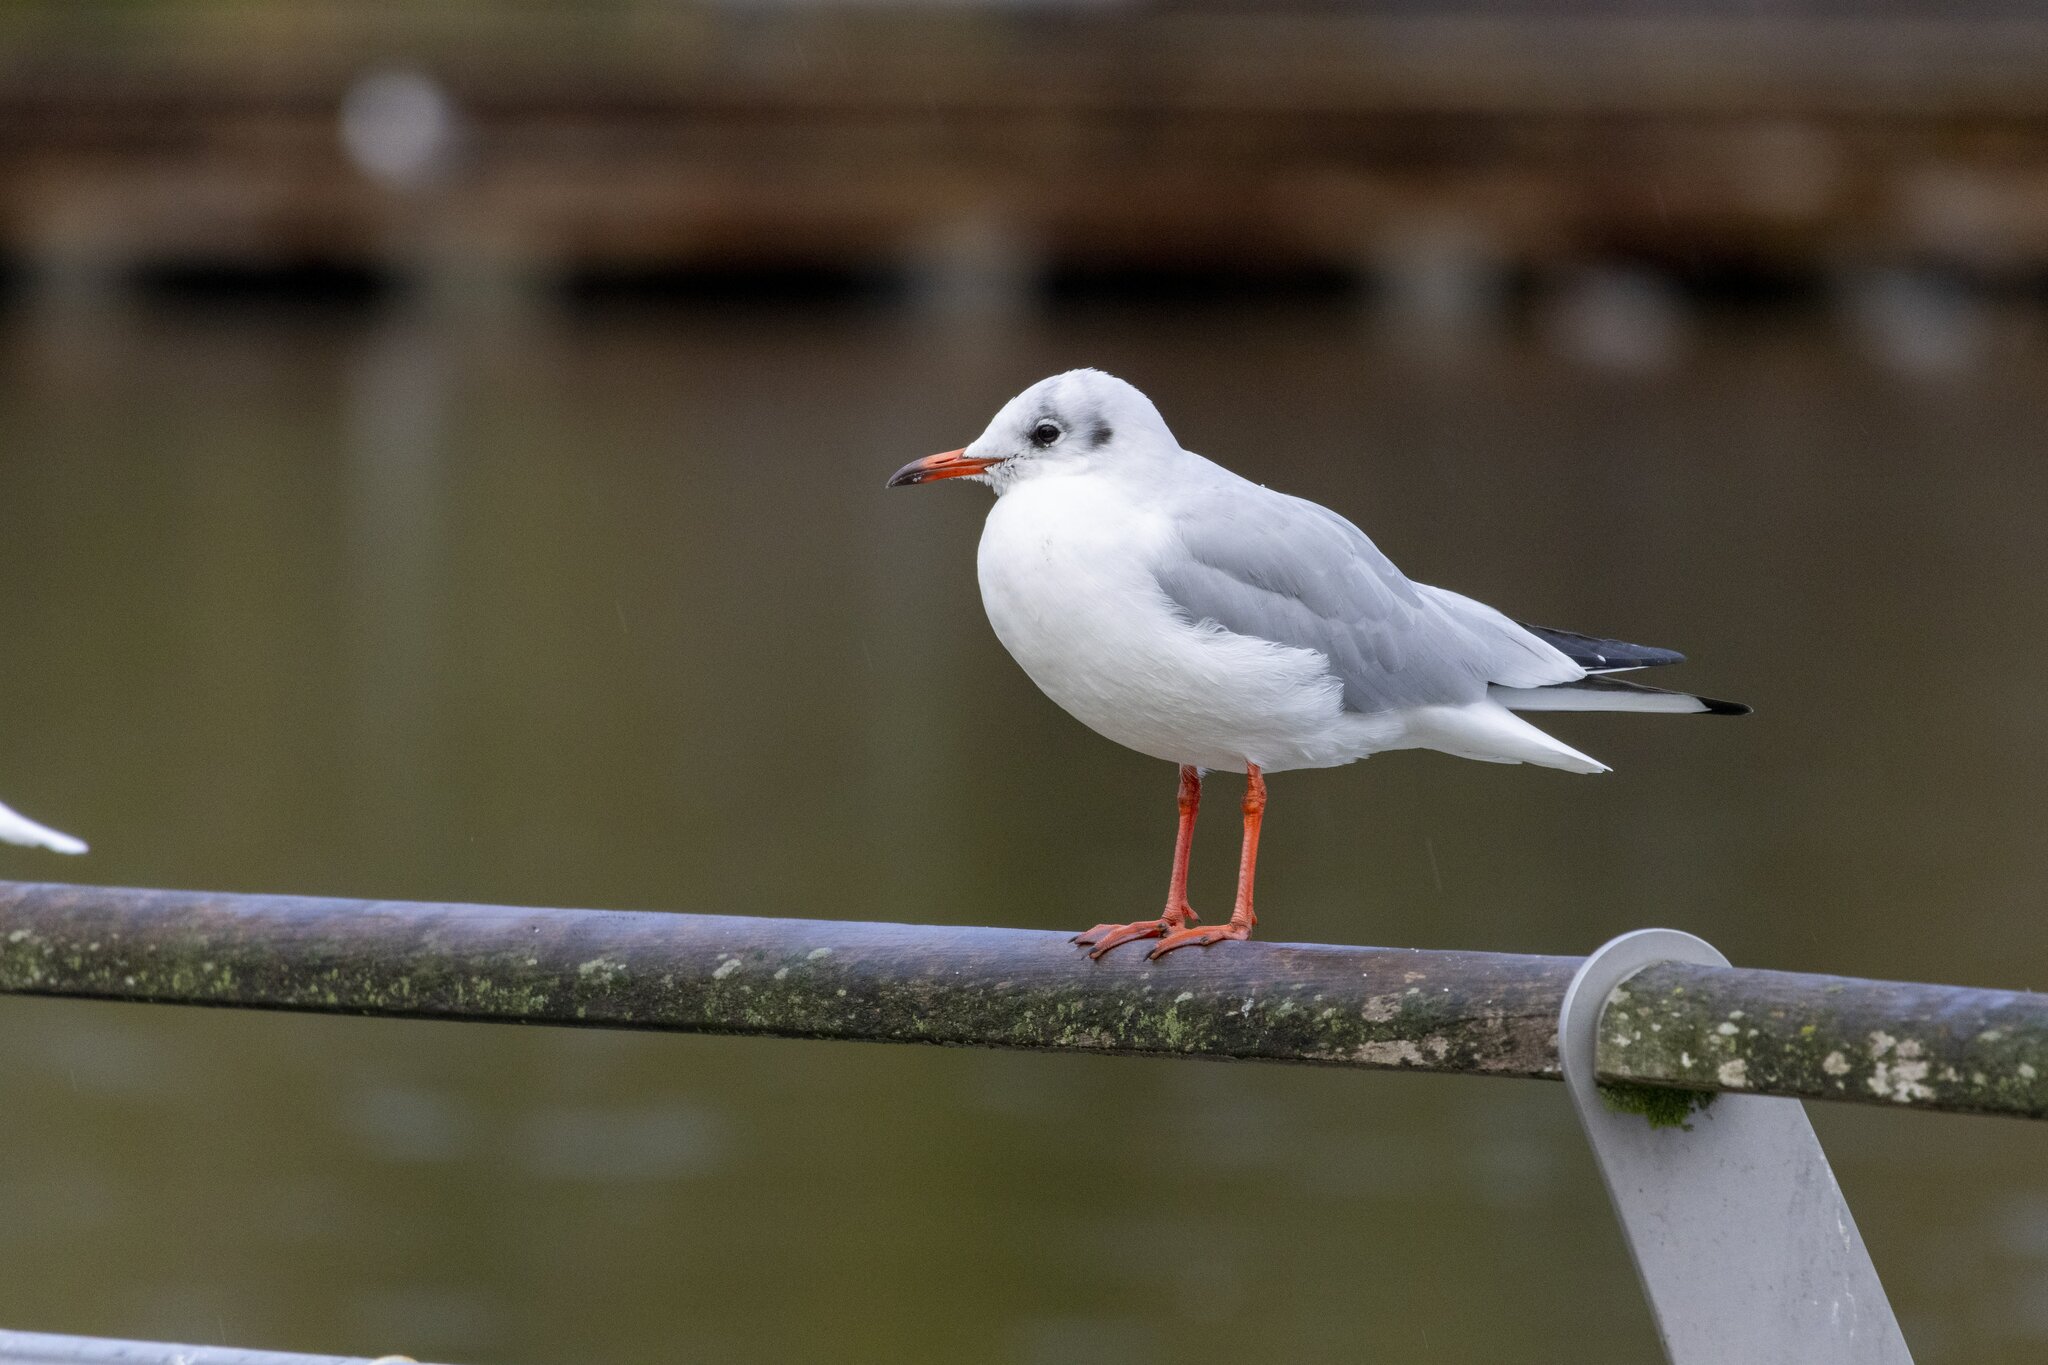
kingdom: Animalia
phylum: Chordata
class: Aves
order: Charadriiformes
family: Laridae
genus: Chroicocephalus
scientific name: Chroicocephalus ridibundus
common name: Black-headed gull
